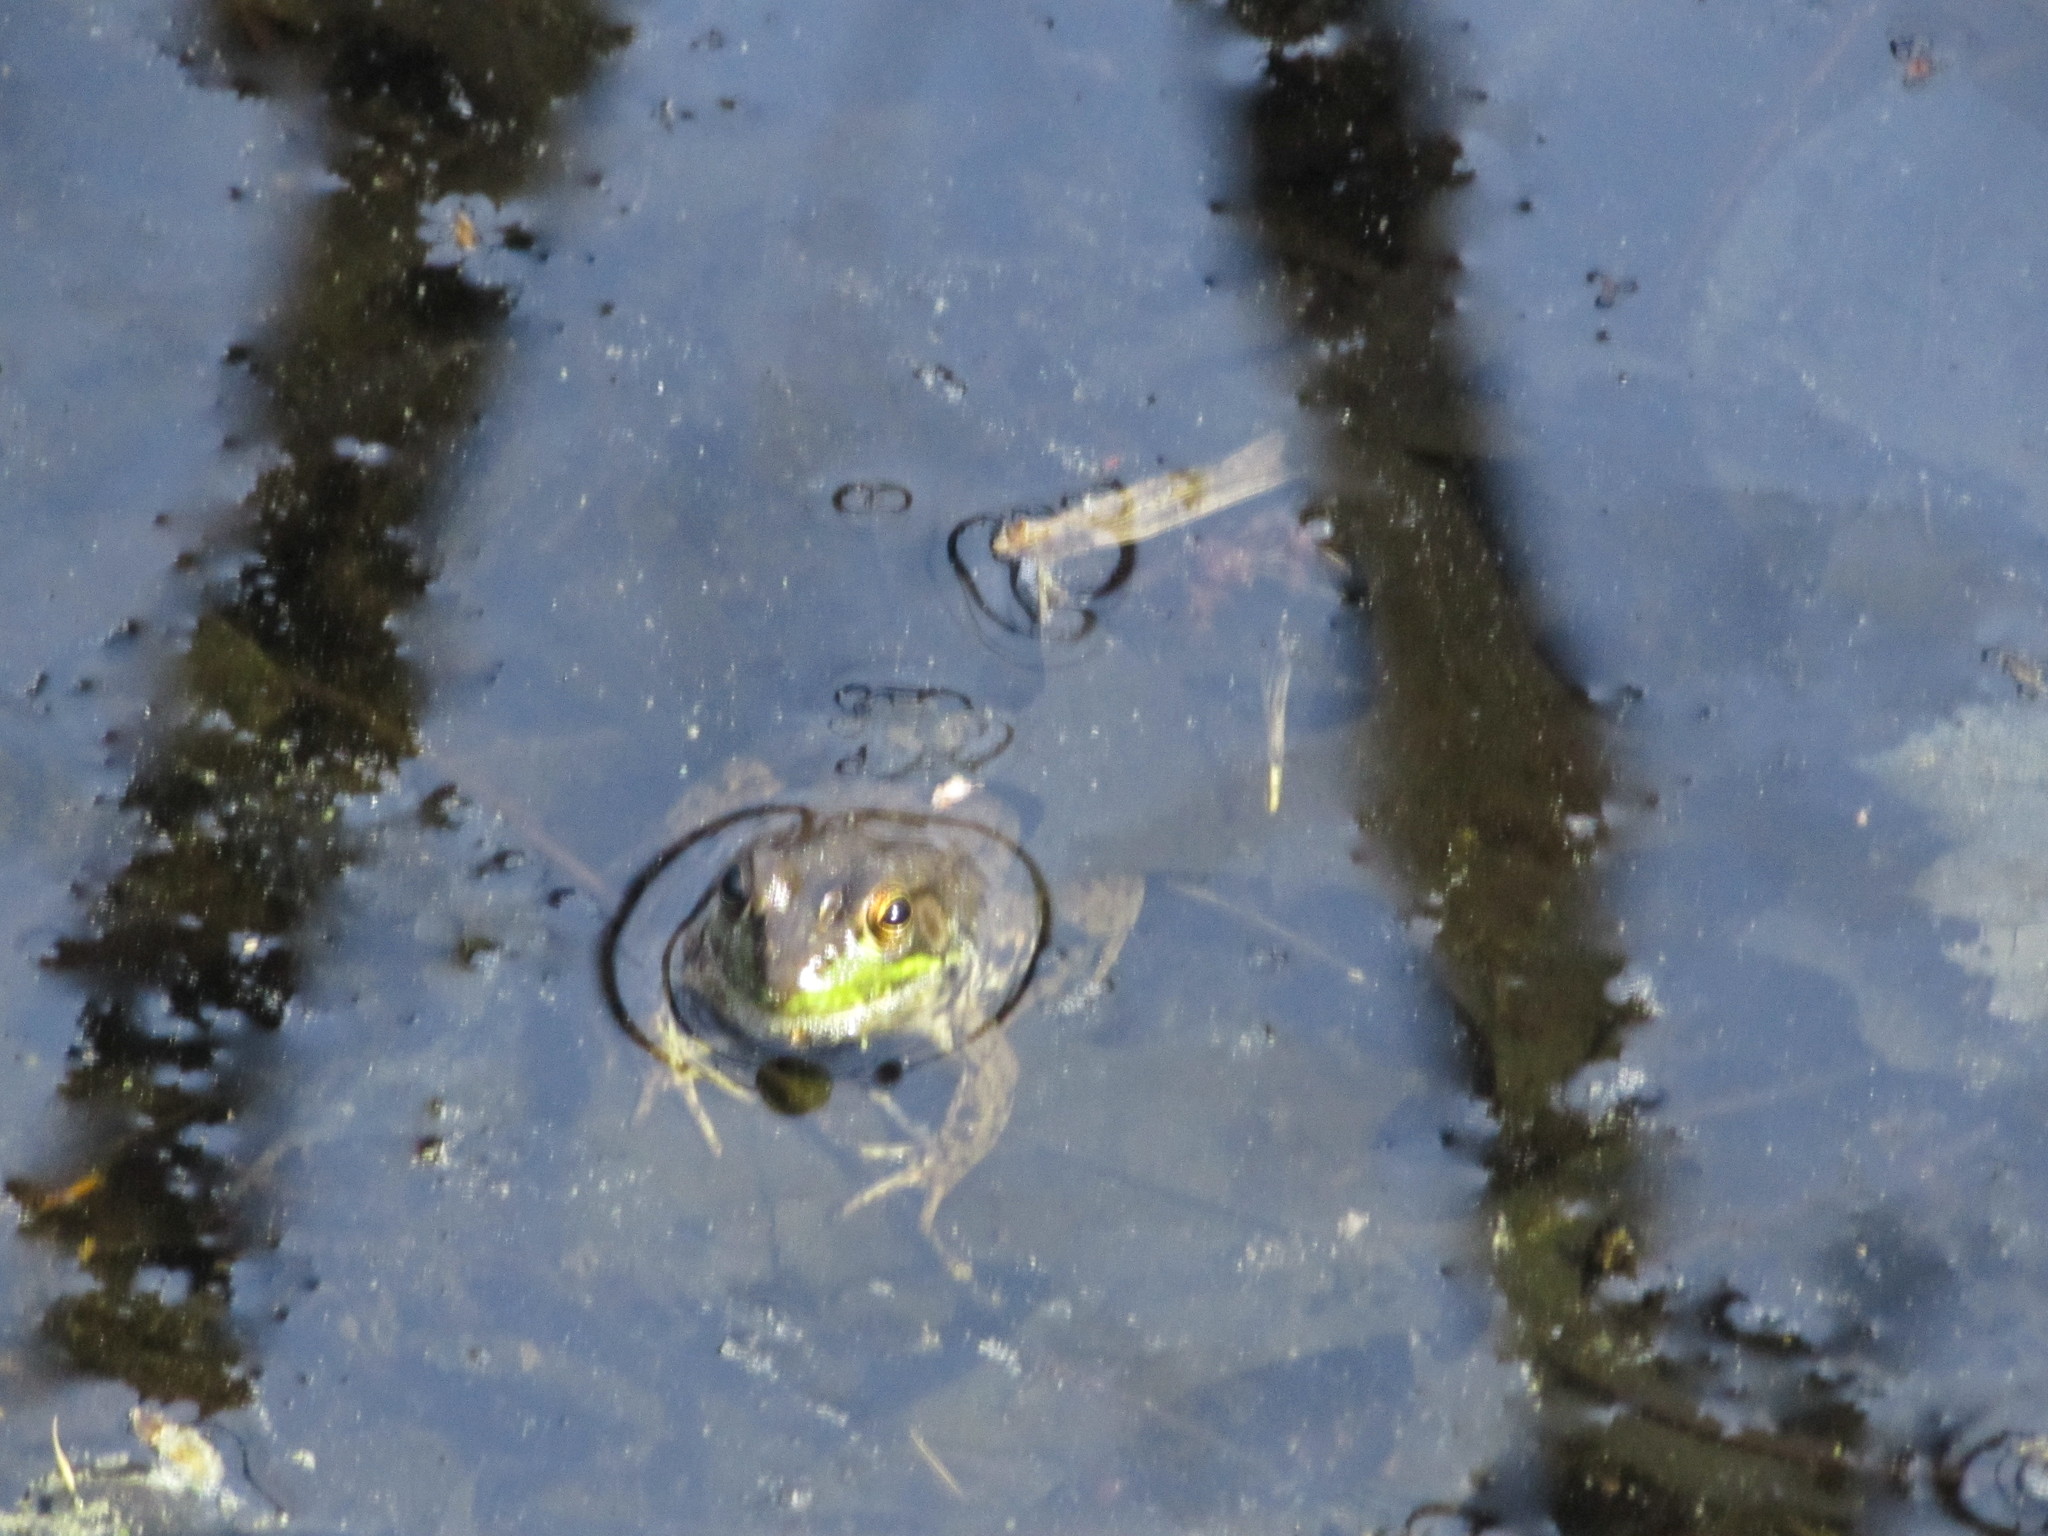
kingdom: Animalia
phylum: Chordata
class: Amphibia
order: Anura
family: Ranidae
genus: Lithobates
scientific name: Lithobates clamitans
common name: Green frog
